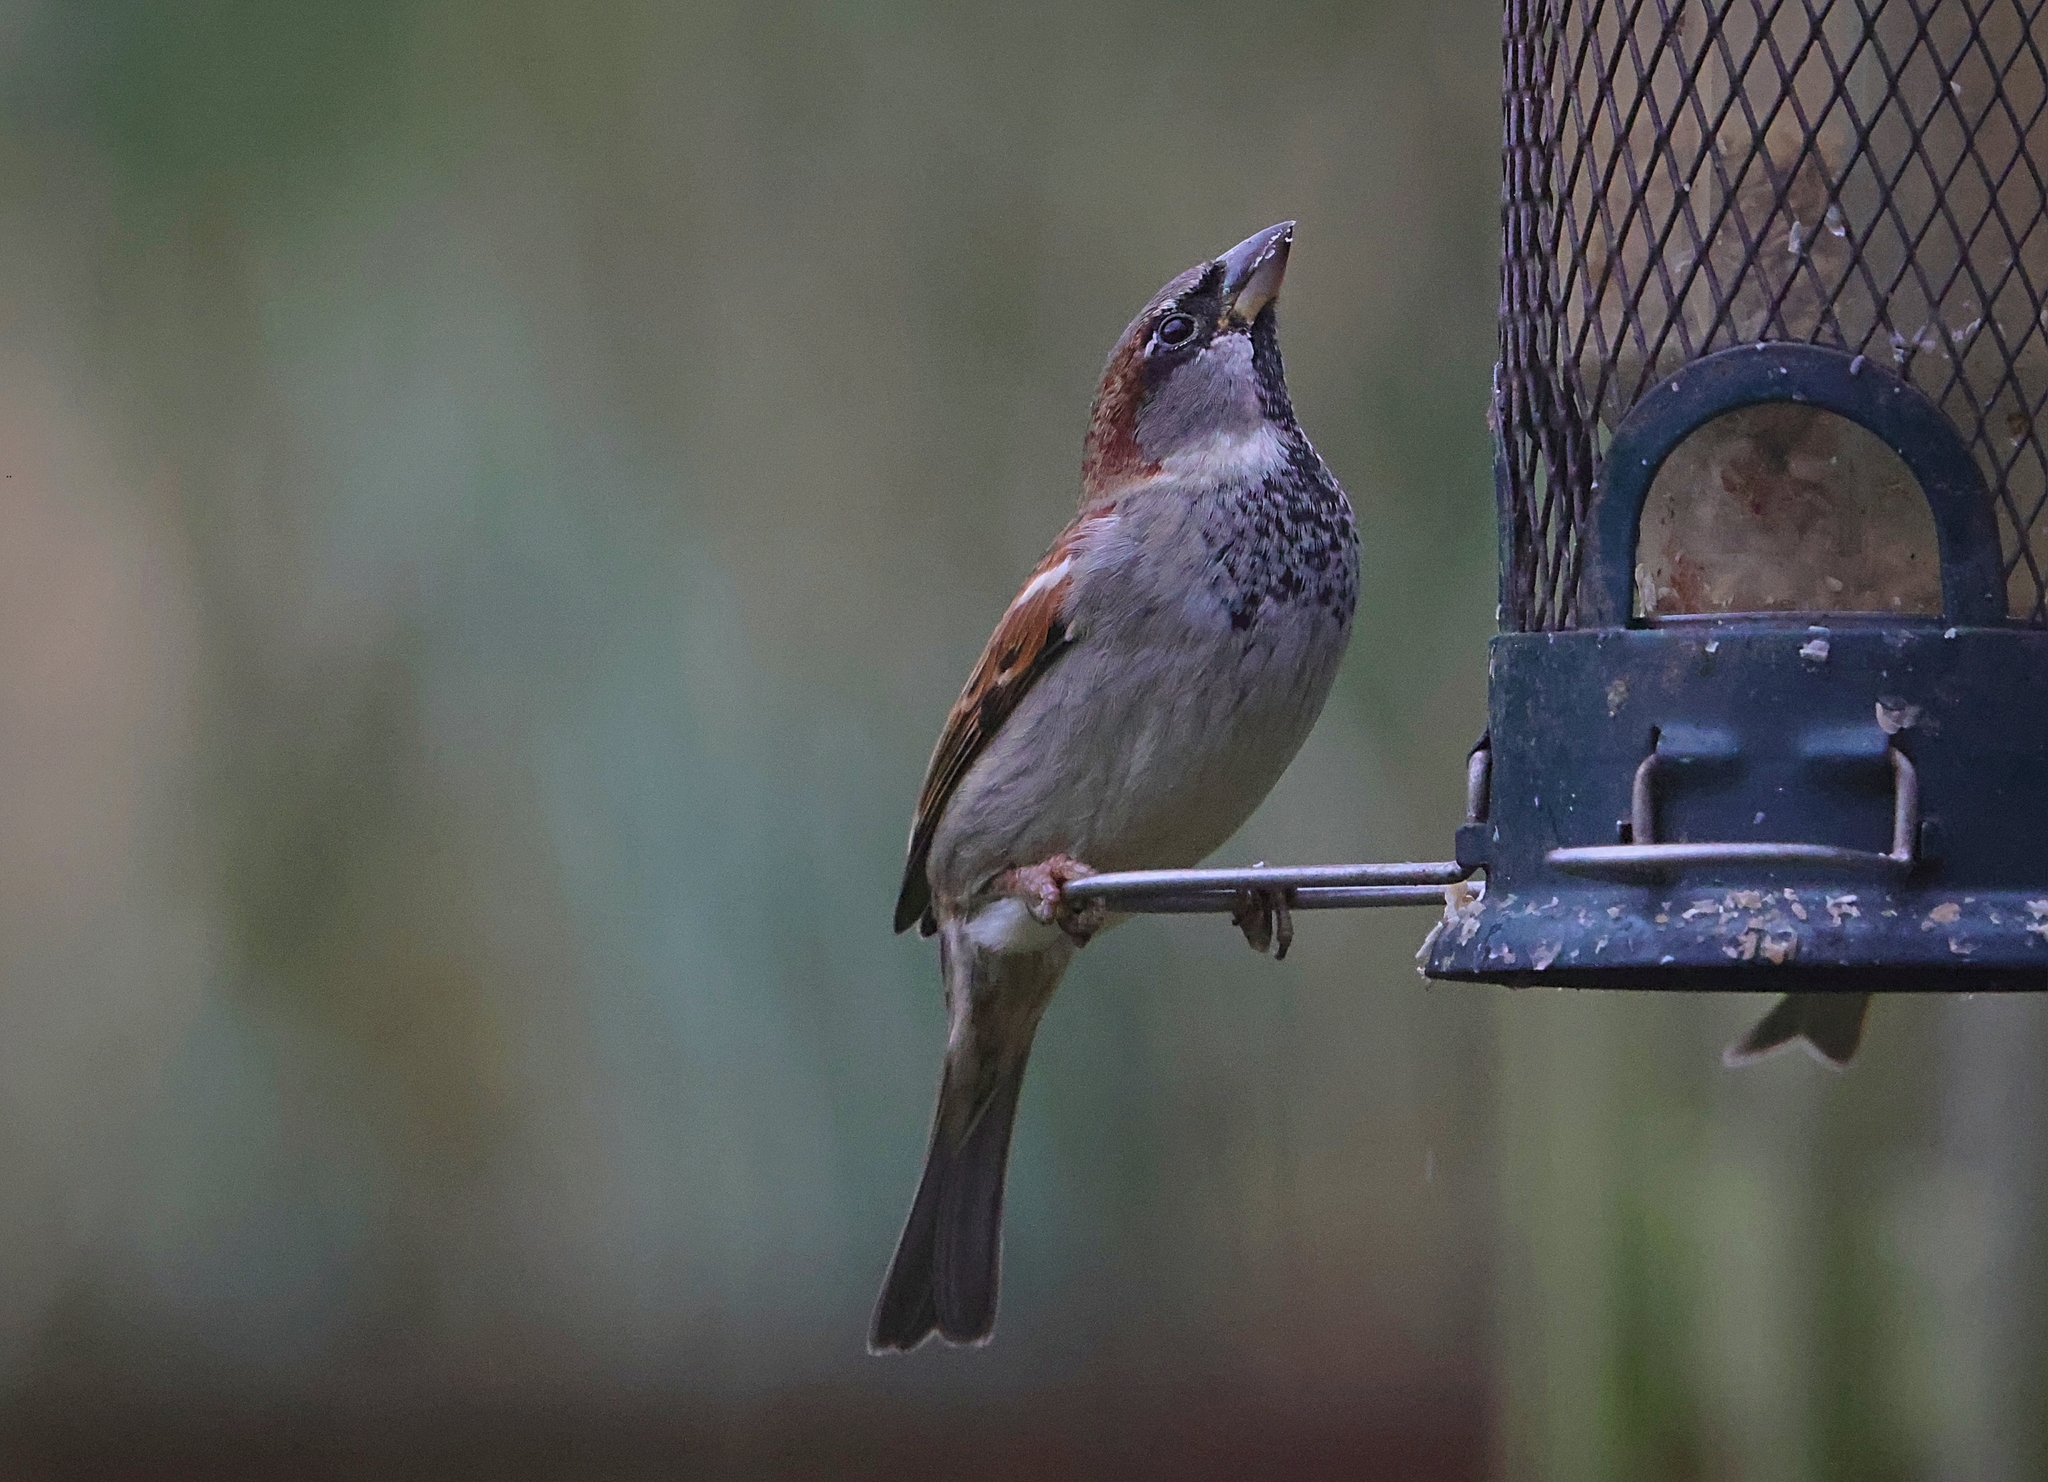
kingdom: Animalia
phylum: Chordata
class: Aves
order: Passeriformes
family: Passeridae
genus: Passer
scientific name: Passer domesticus
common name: House sparrow
